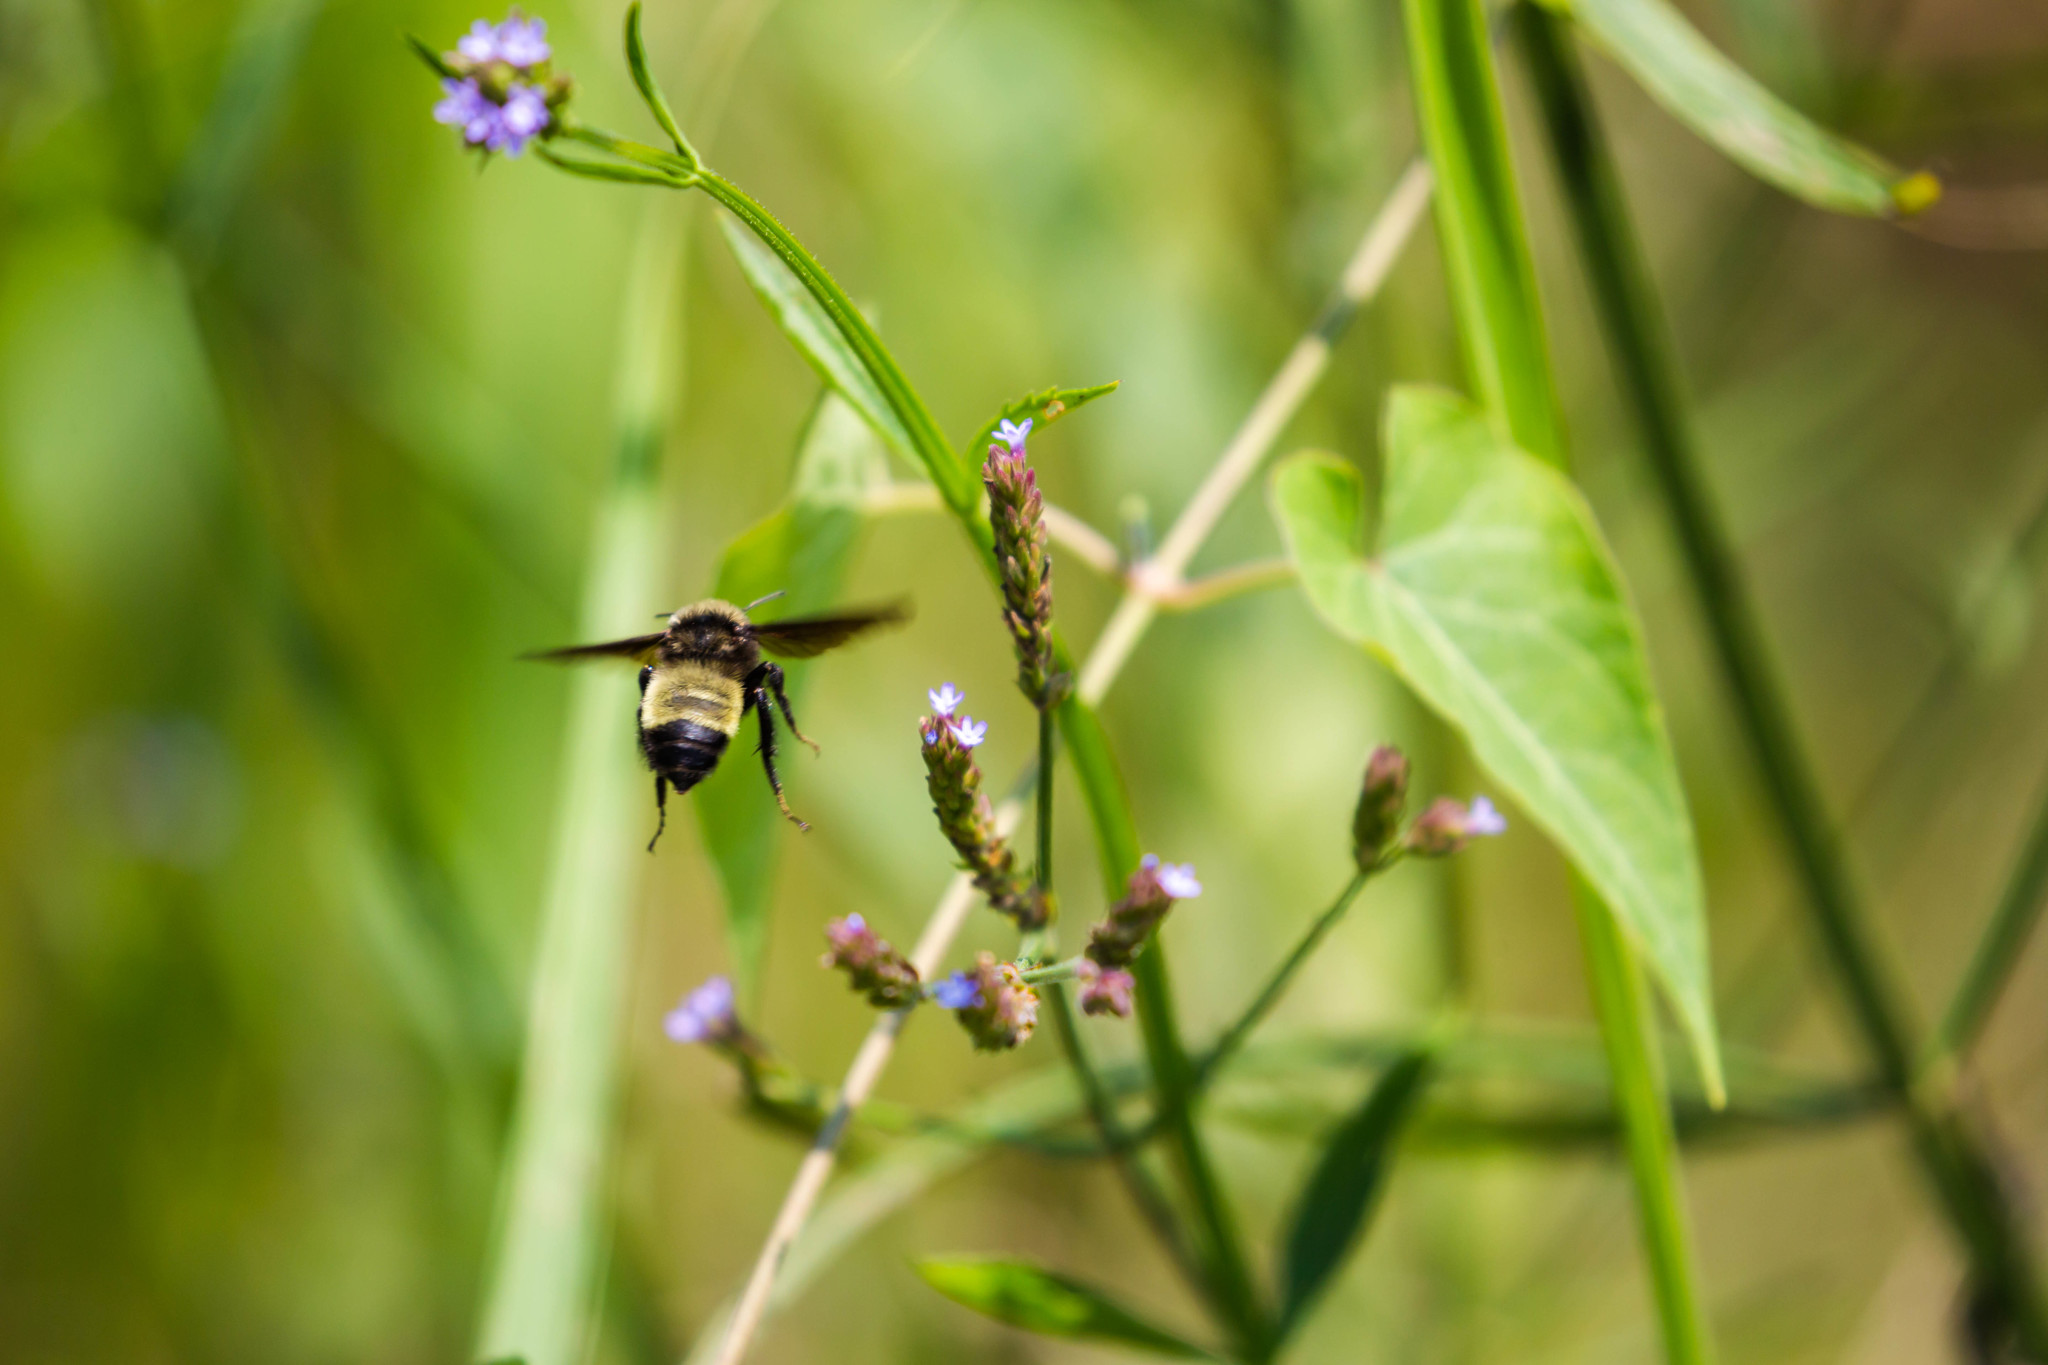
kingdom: Animalia
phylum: Arthropoda
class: Insecta
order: Hymenoptera
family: Apidae
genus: Bombus
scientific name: Bombus griseocollis
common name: Brown-belted bumble bee
